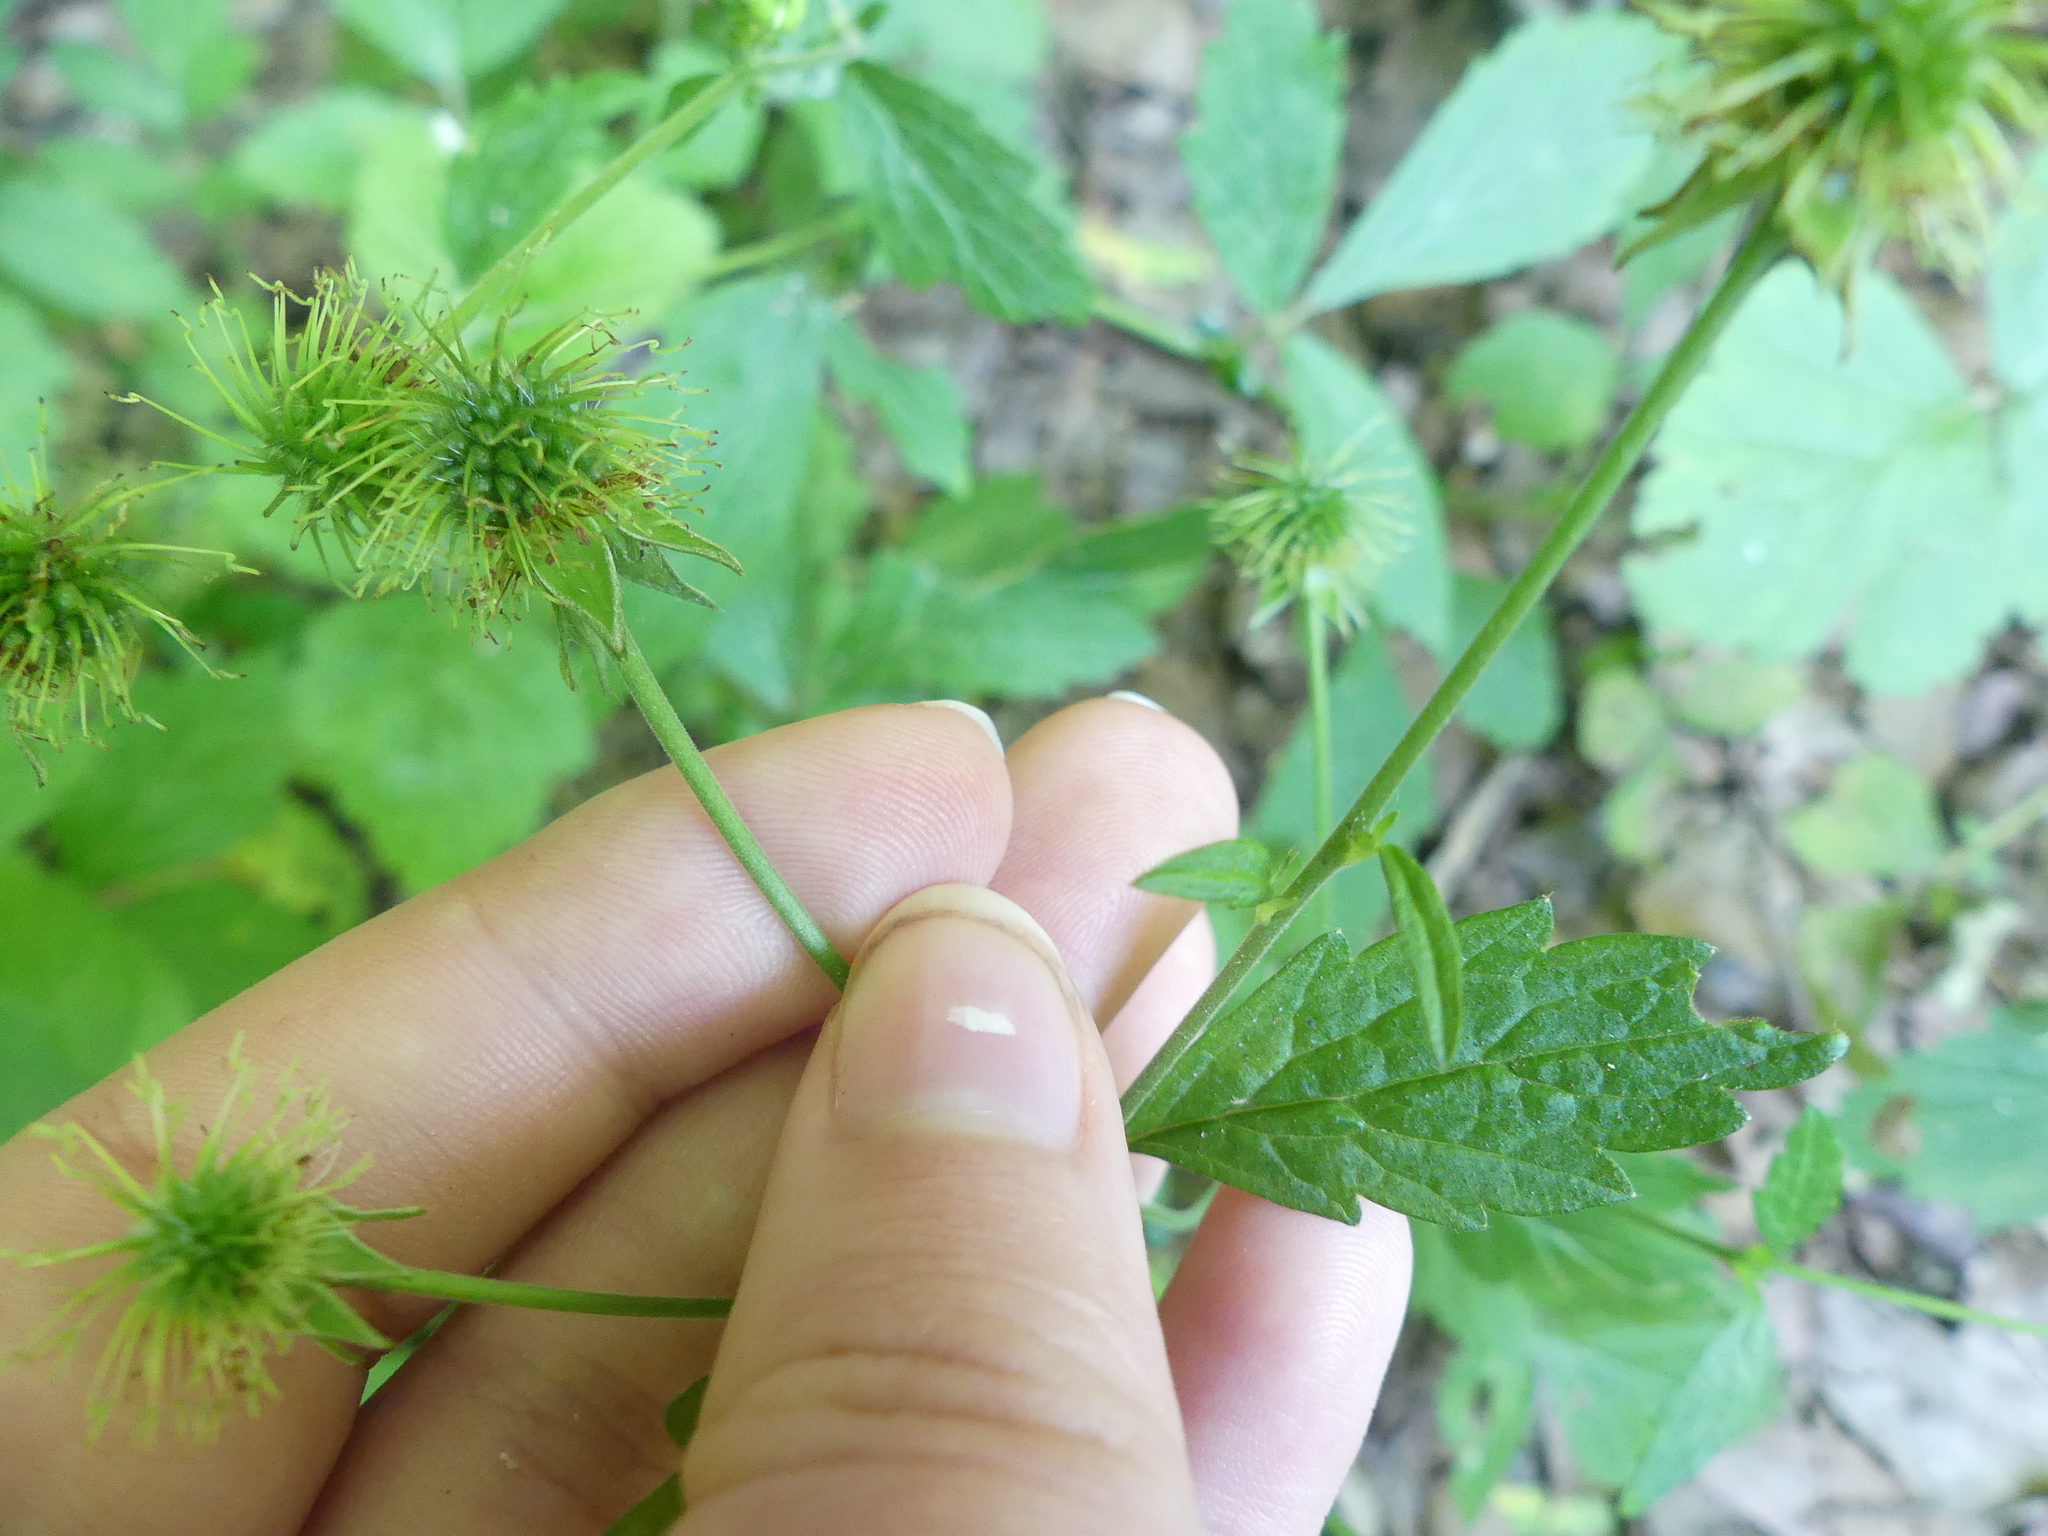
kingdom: Plantae
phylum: Tracheophyta
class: Magnoliopsida
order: Rosales
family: Rosaceae
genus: Geum
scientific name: Geum canadense
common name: White avens
